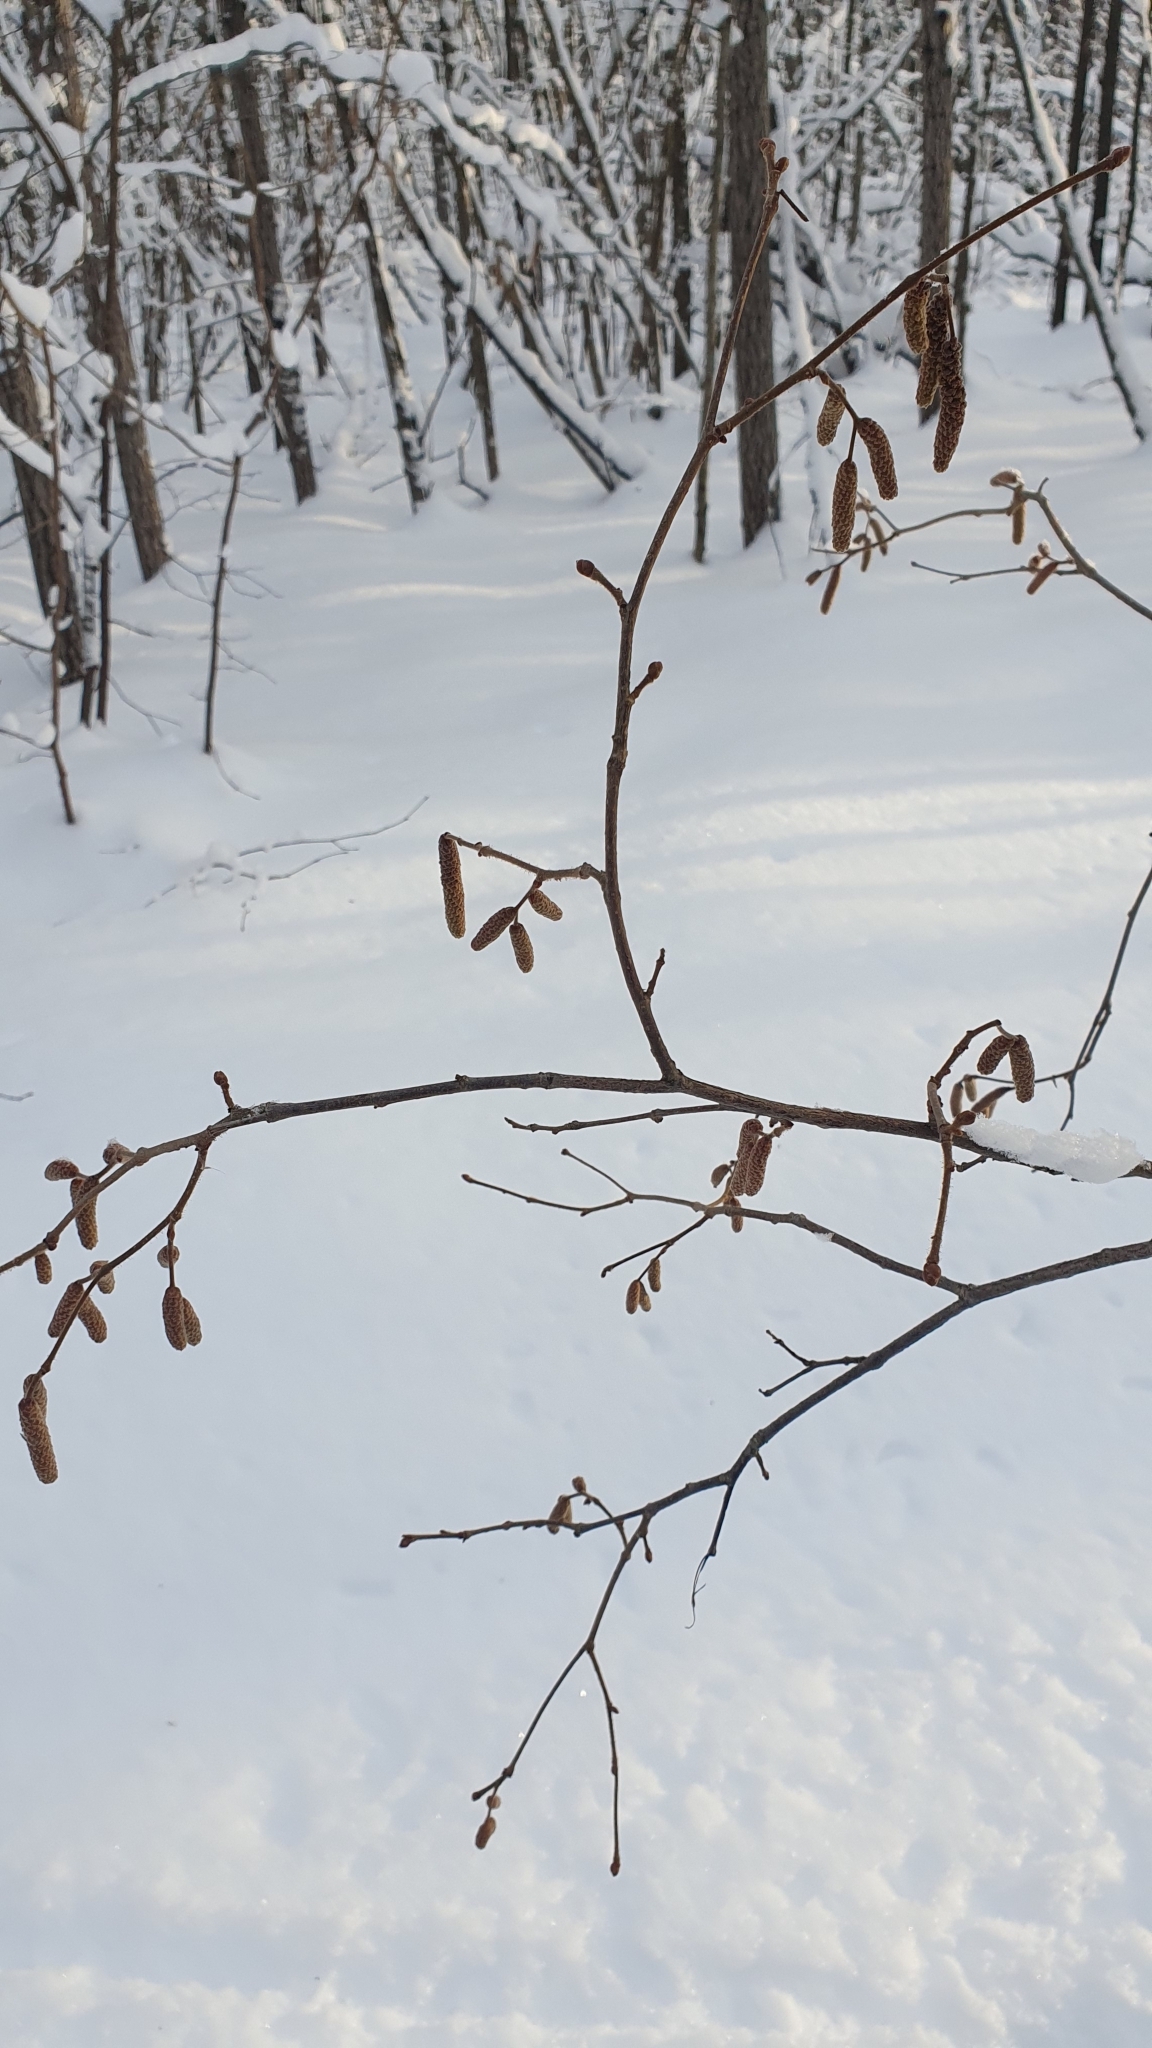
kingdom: Plantae
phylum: Tracheophyta
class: Magnoliopsida
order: Fagales
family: Betulaceae
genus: Corylus
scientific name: Corylus avellana
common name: European hazel
